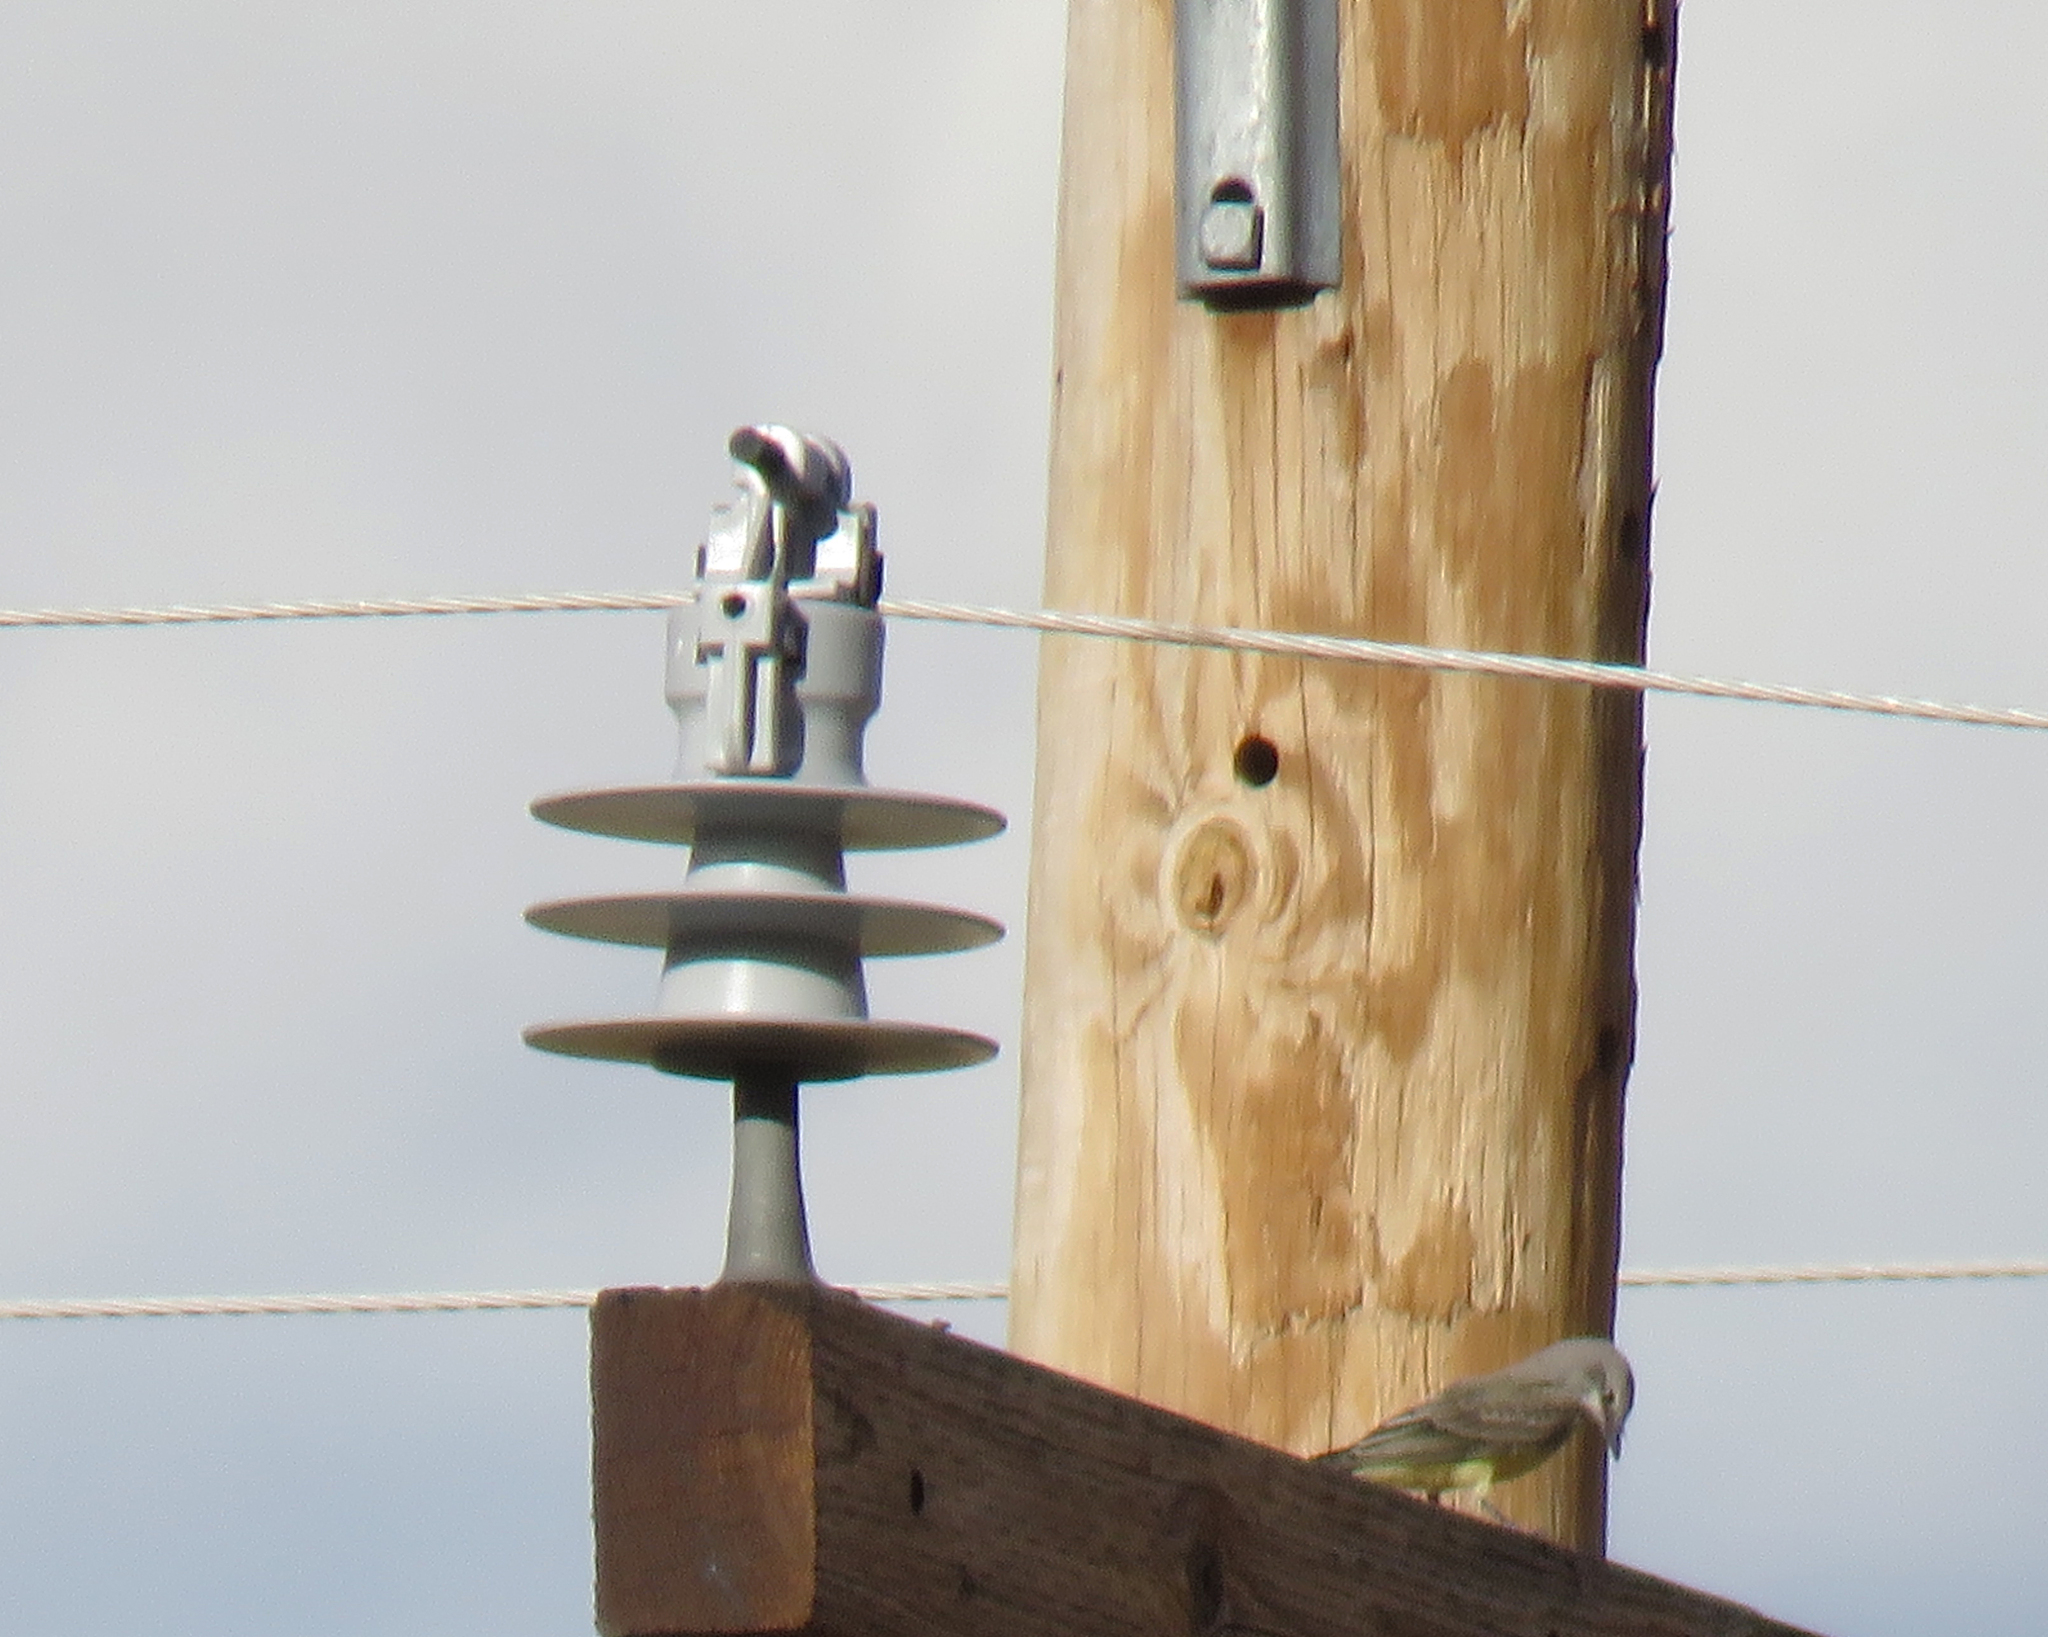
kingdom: Animalia
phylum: Chordata
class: Aves
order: Passeriformes
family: Tyrannidae
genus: Tyrannus
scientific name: Tyrannus verticalis
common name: Western kingbird
